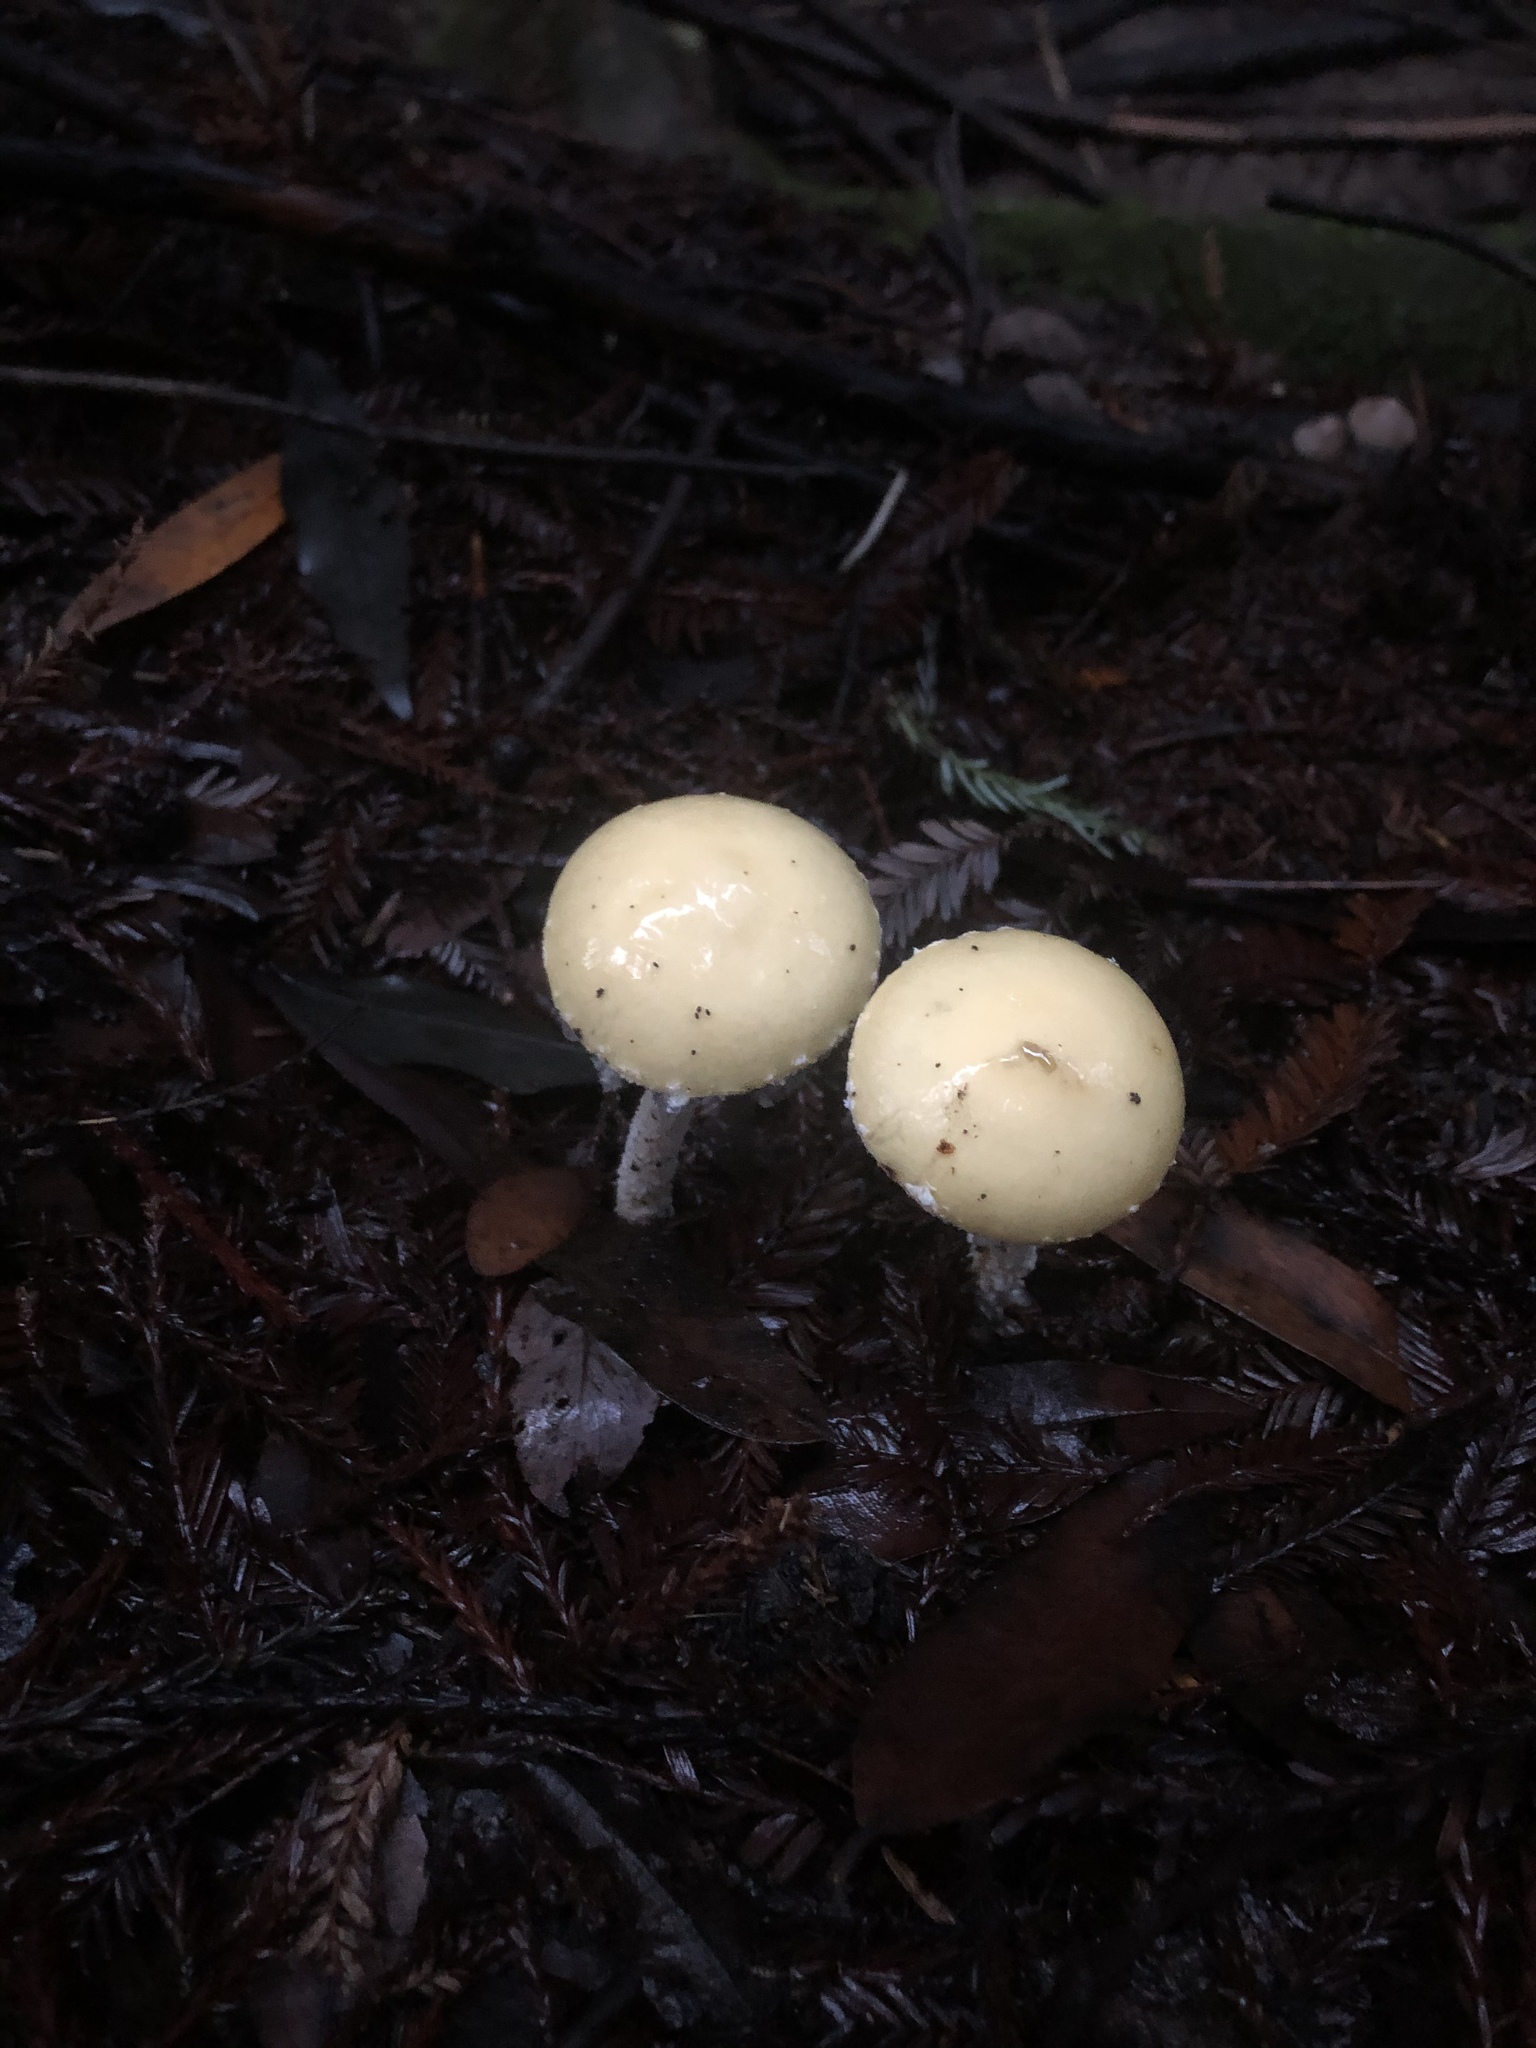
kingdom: Fungi
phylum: Basidiomycota
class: Agaricomycetes
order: Agaricales
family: Strophariaceae
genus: Stropharia
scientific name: Stropharia ambigua
